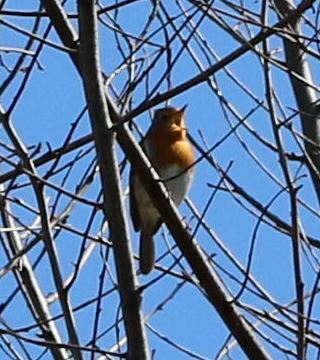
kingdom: Animalia
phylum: Chordata
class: Aves
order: Passeriformes
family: Muscicapidae
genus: Erithacus
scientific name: Erithacus rubecula
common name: European robin
